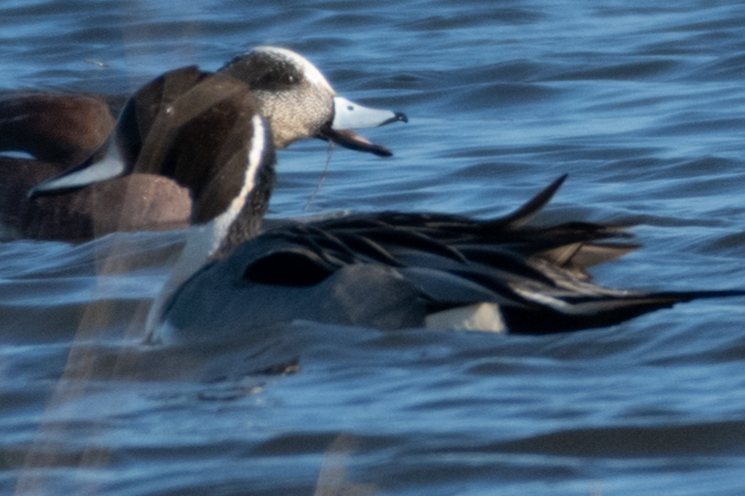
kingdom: Animalia
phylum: Chordata
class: Aves
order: Anseriformes
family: Anatidae
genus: Anas
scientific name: Anas acuta
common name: Northern pintail
